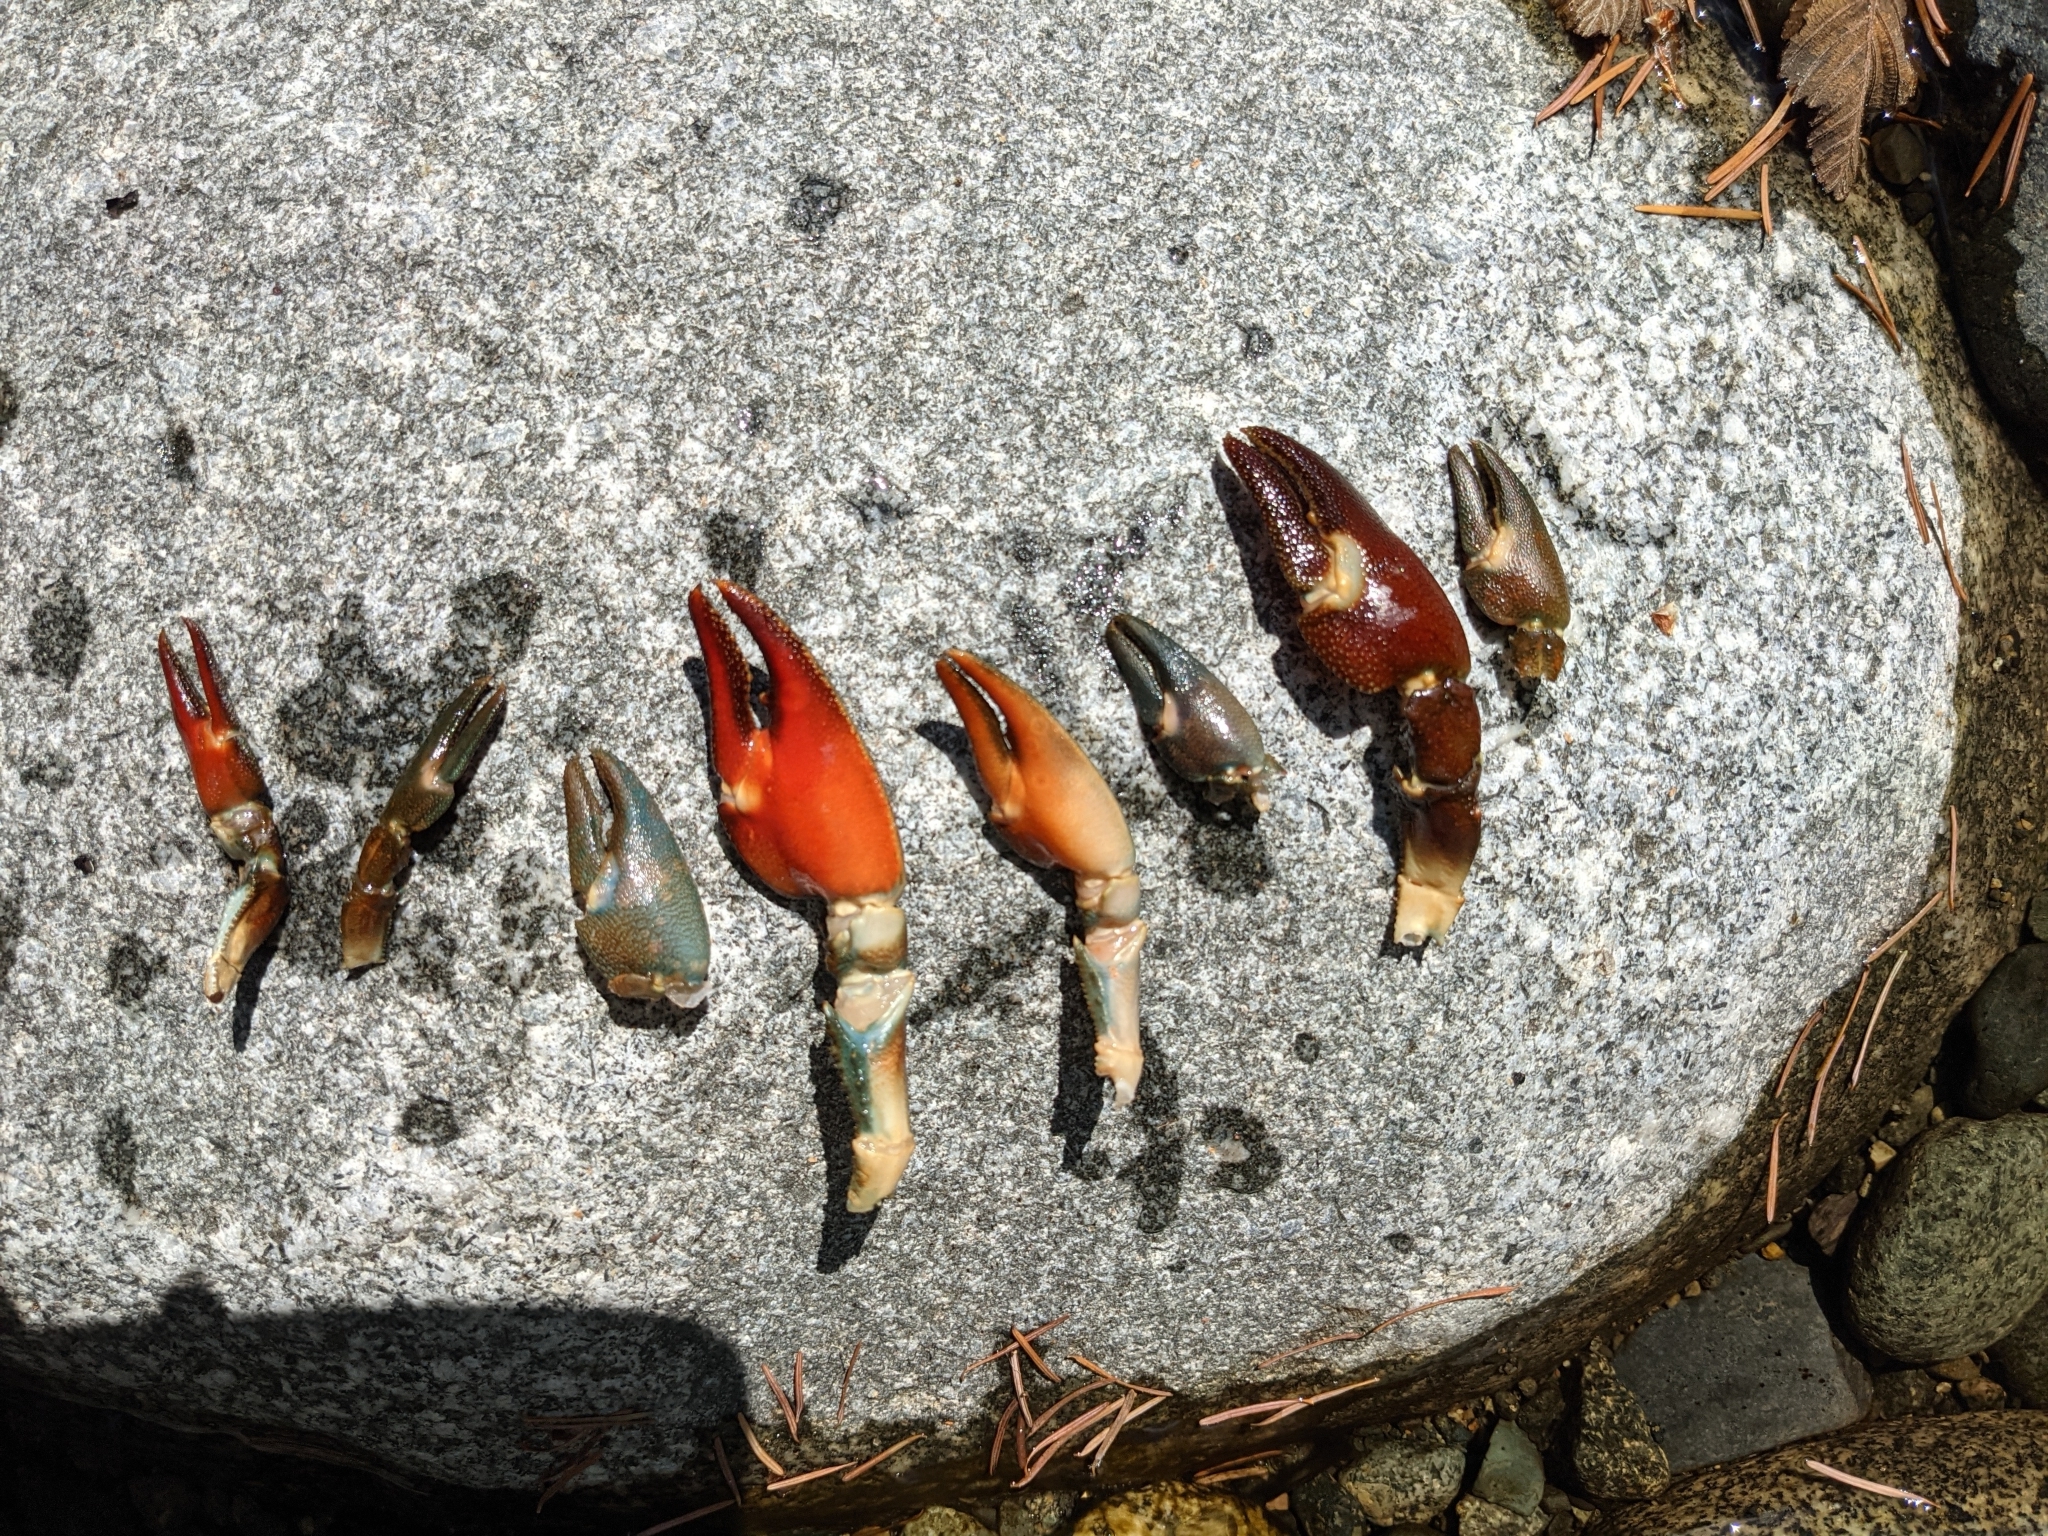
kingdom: Animalia
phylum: Arthropoda
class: Malacostraca
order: Decapoda
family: Astacidae
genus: Pacifastacus
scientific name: Pacifastacus leniusculus
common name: Signal crayfish
